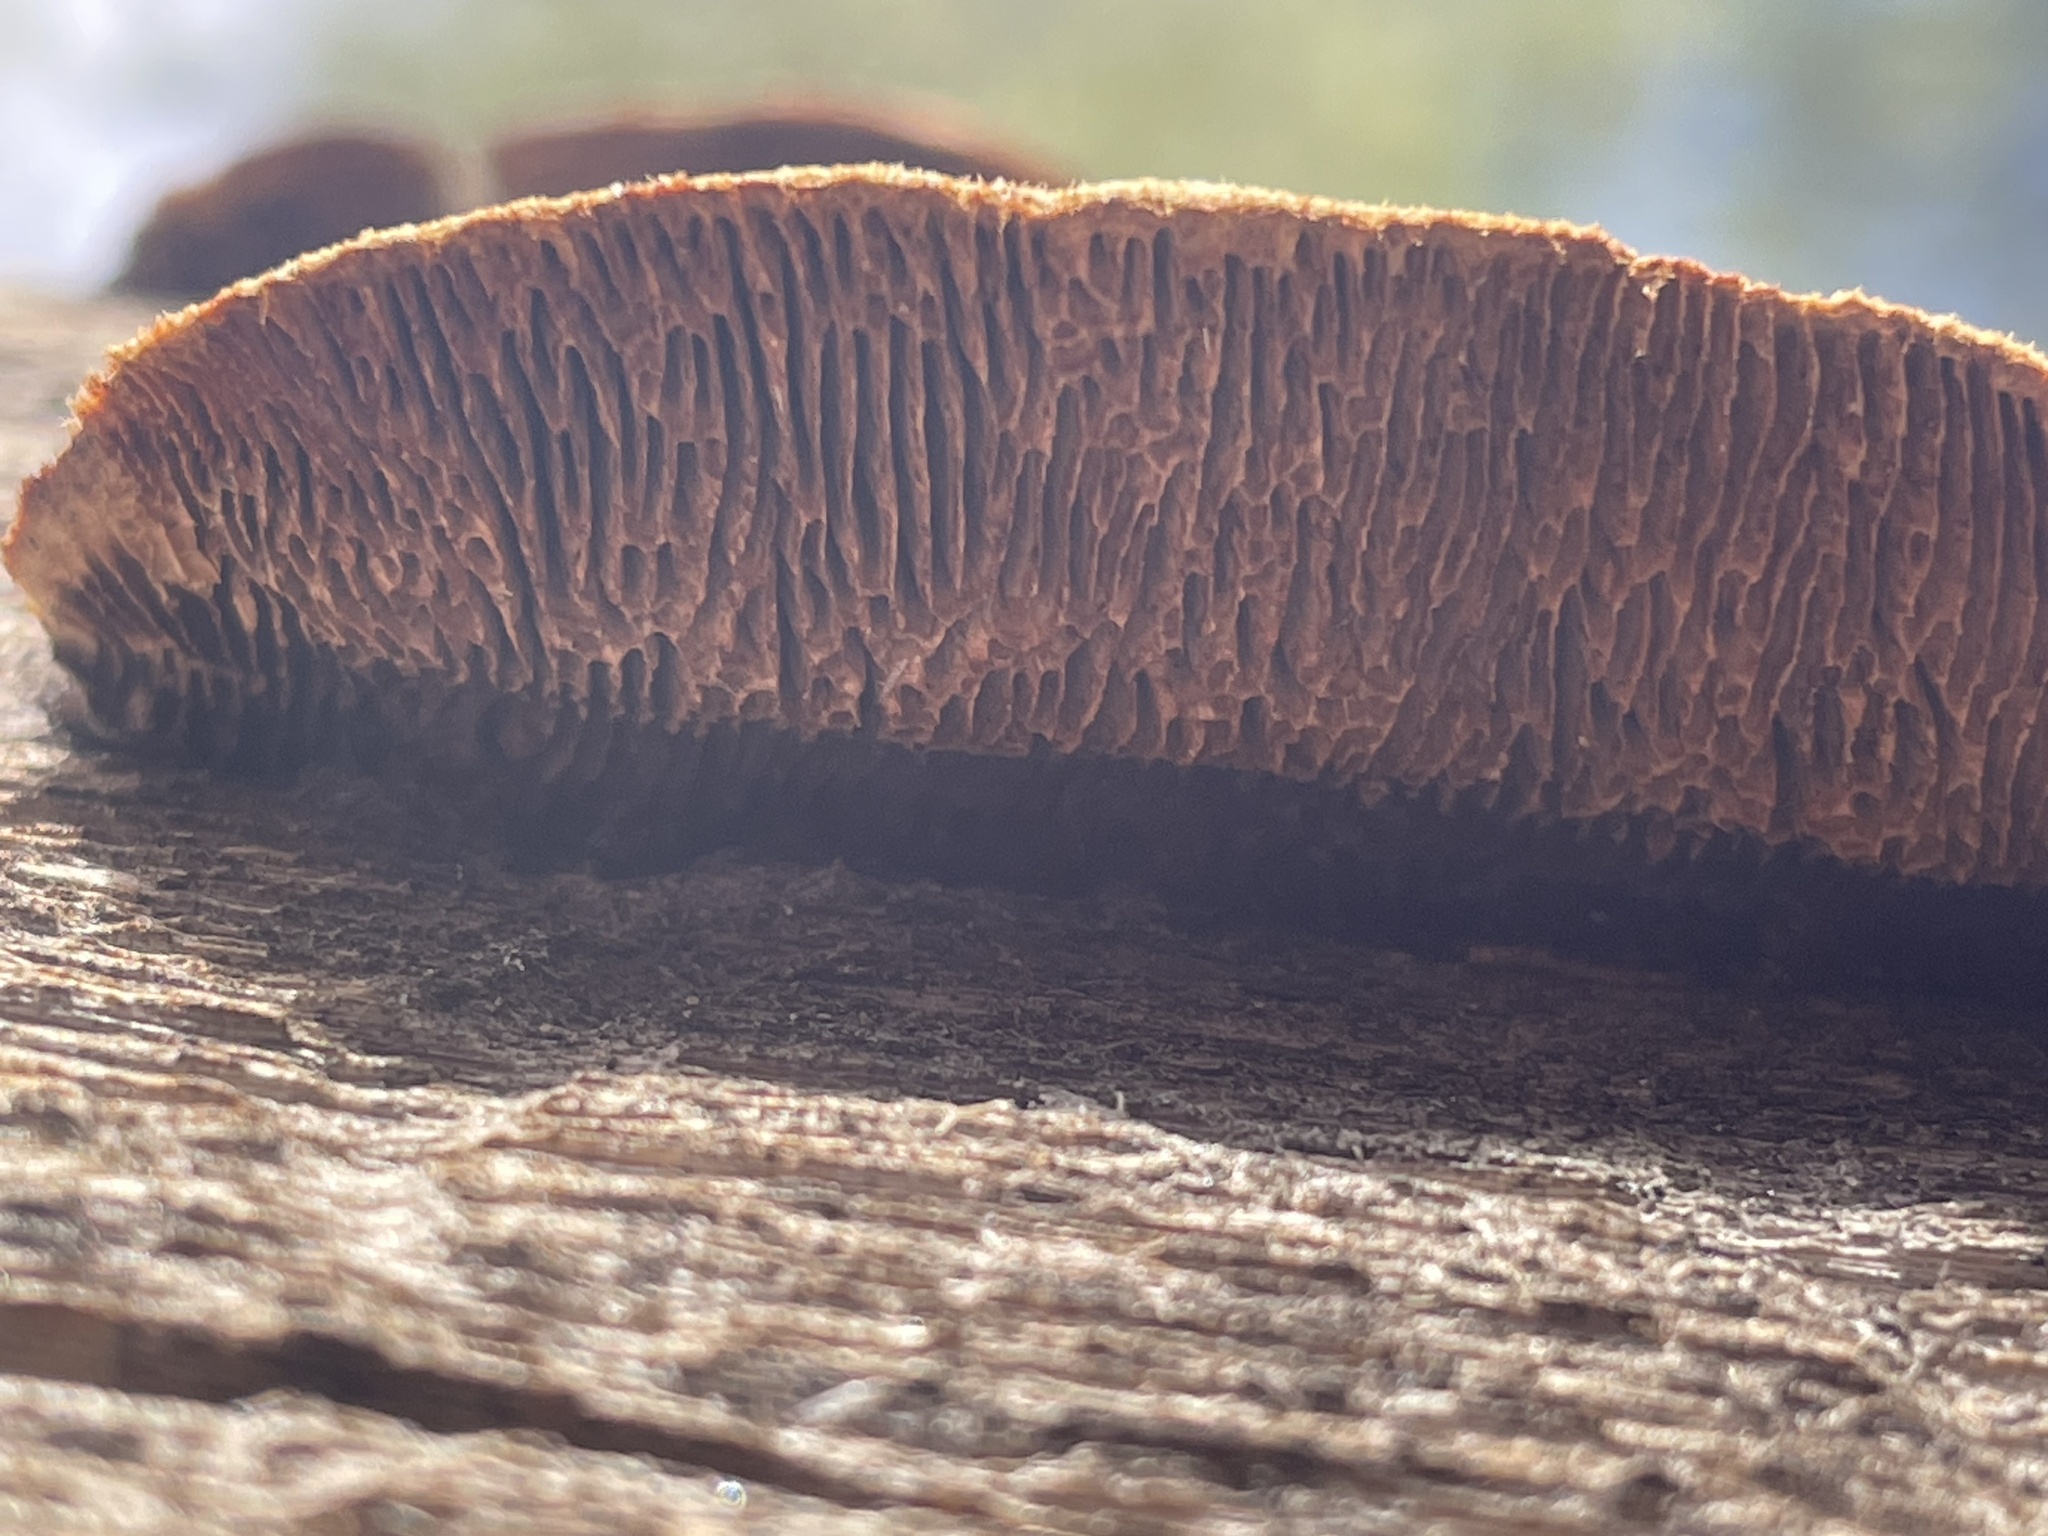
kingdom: Fungi
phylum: Basidiomycota
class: Agaricomycetes
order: Gloeophyllales
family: Gloeophyllaceae
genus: Gloeophyllum
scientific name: Gloeophyllum sepiarium
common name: Conifer mazegill
